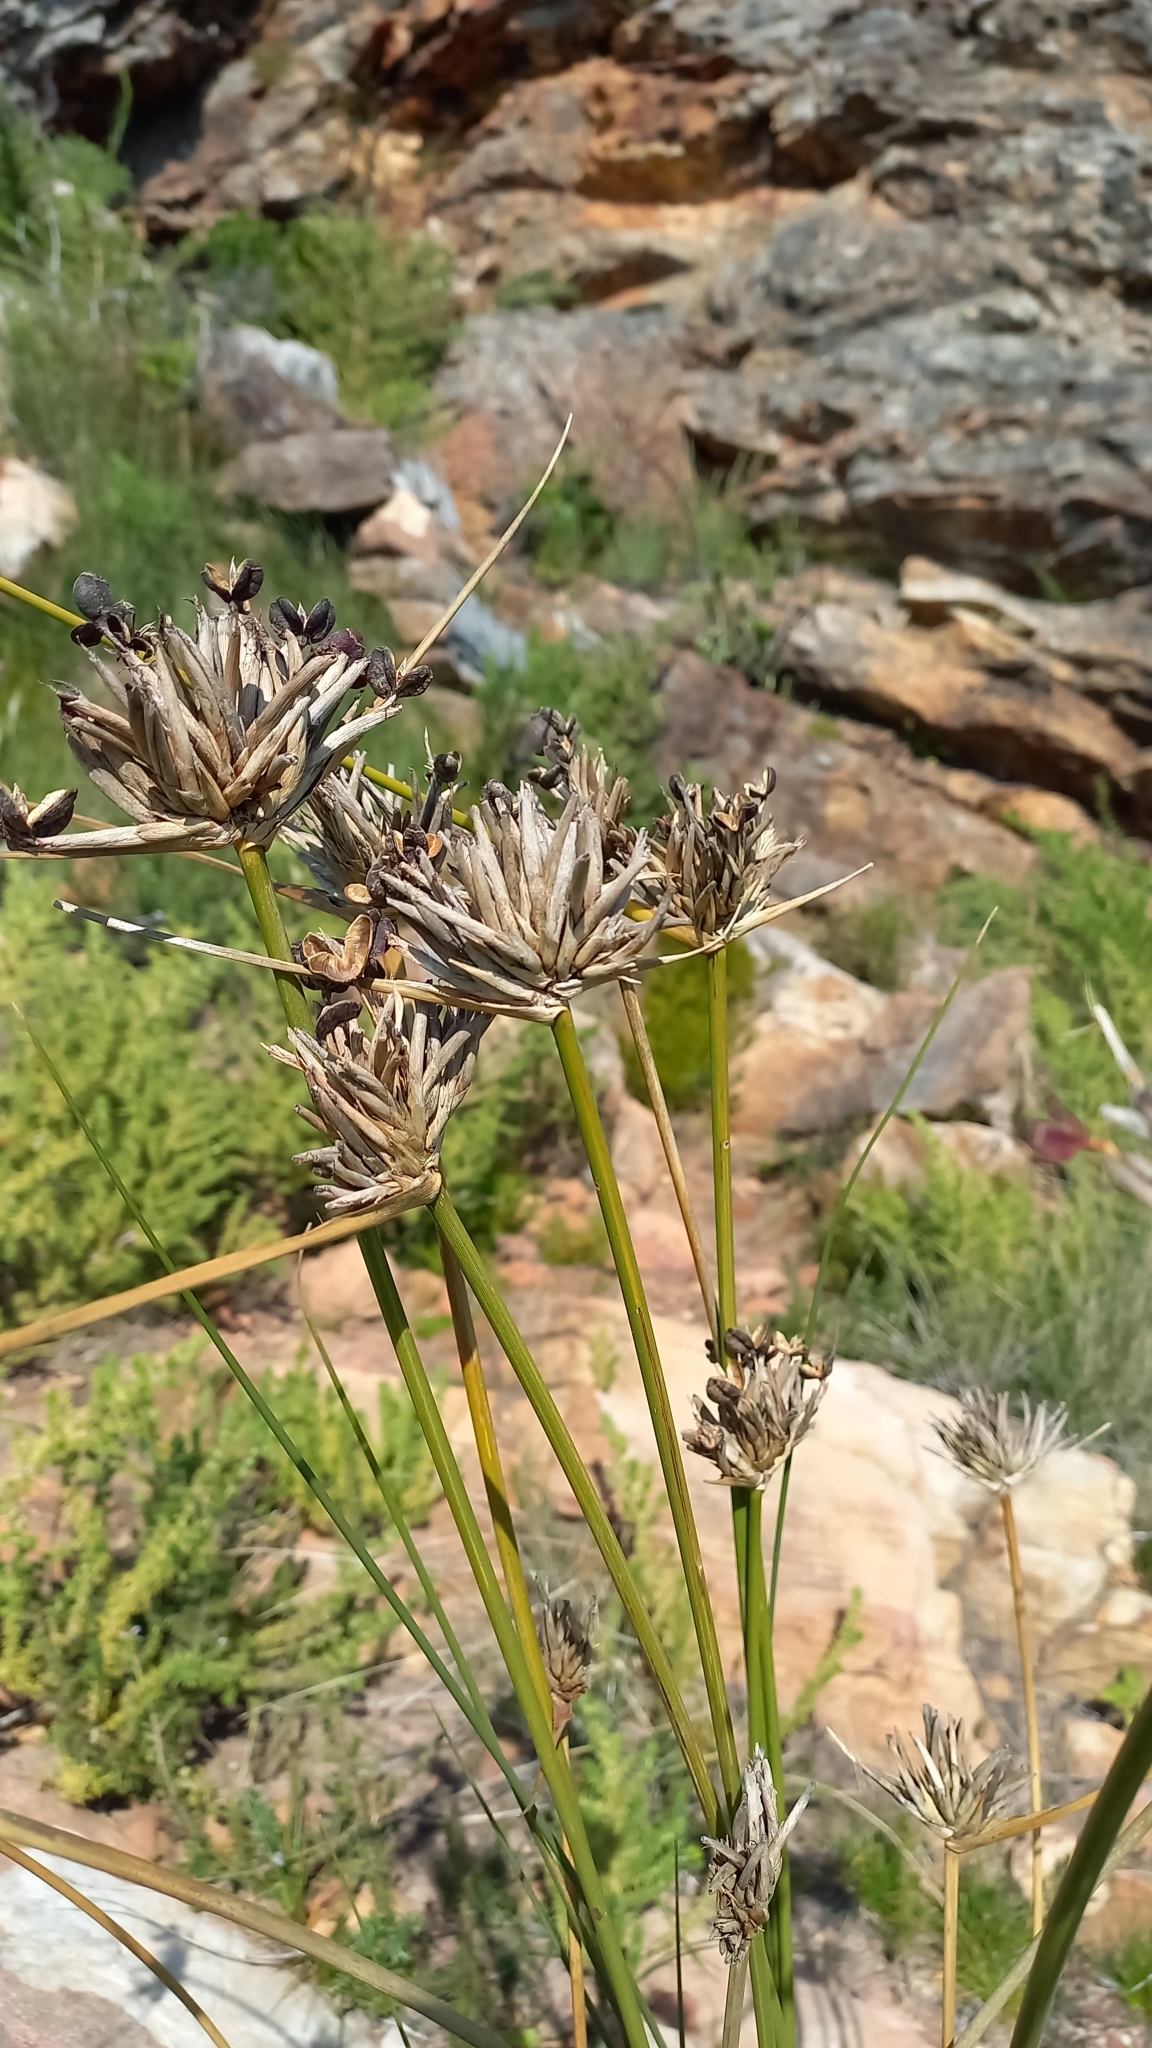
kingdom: Plantae
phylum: Tracheophyta
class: Liliopsida
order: Asparagales
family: Iridaceae
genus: Bobartia
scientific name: Bobartia indica
